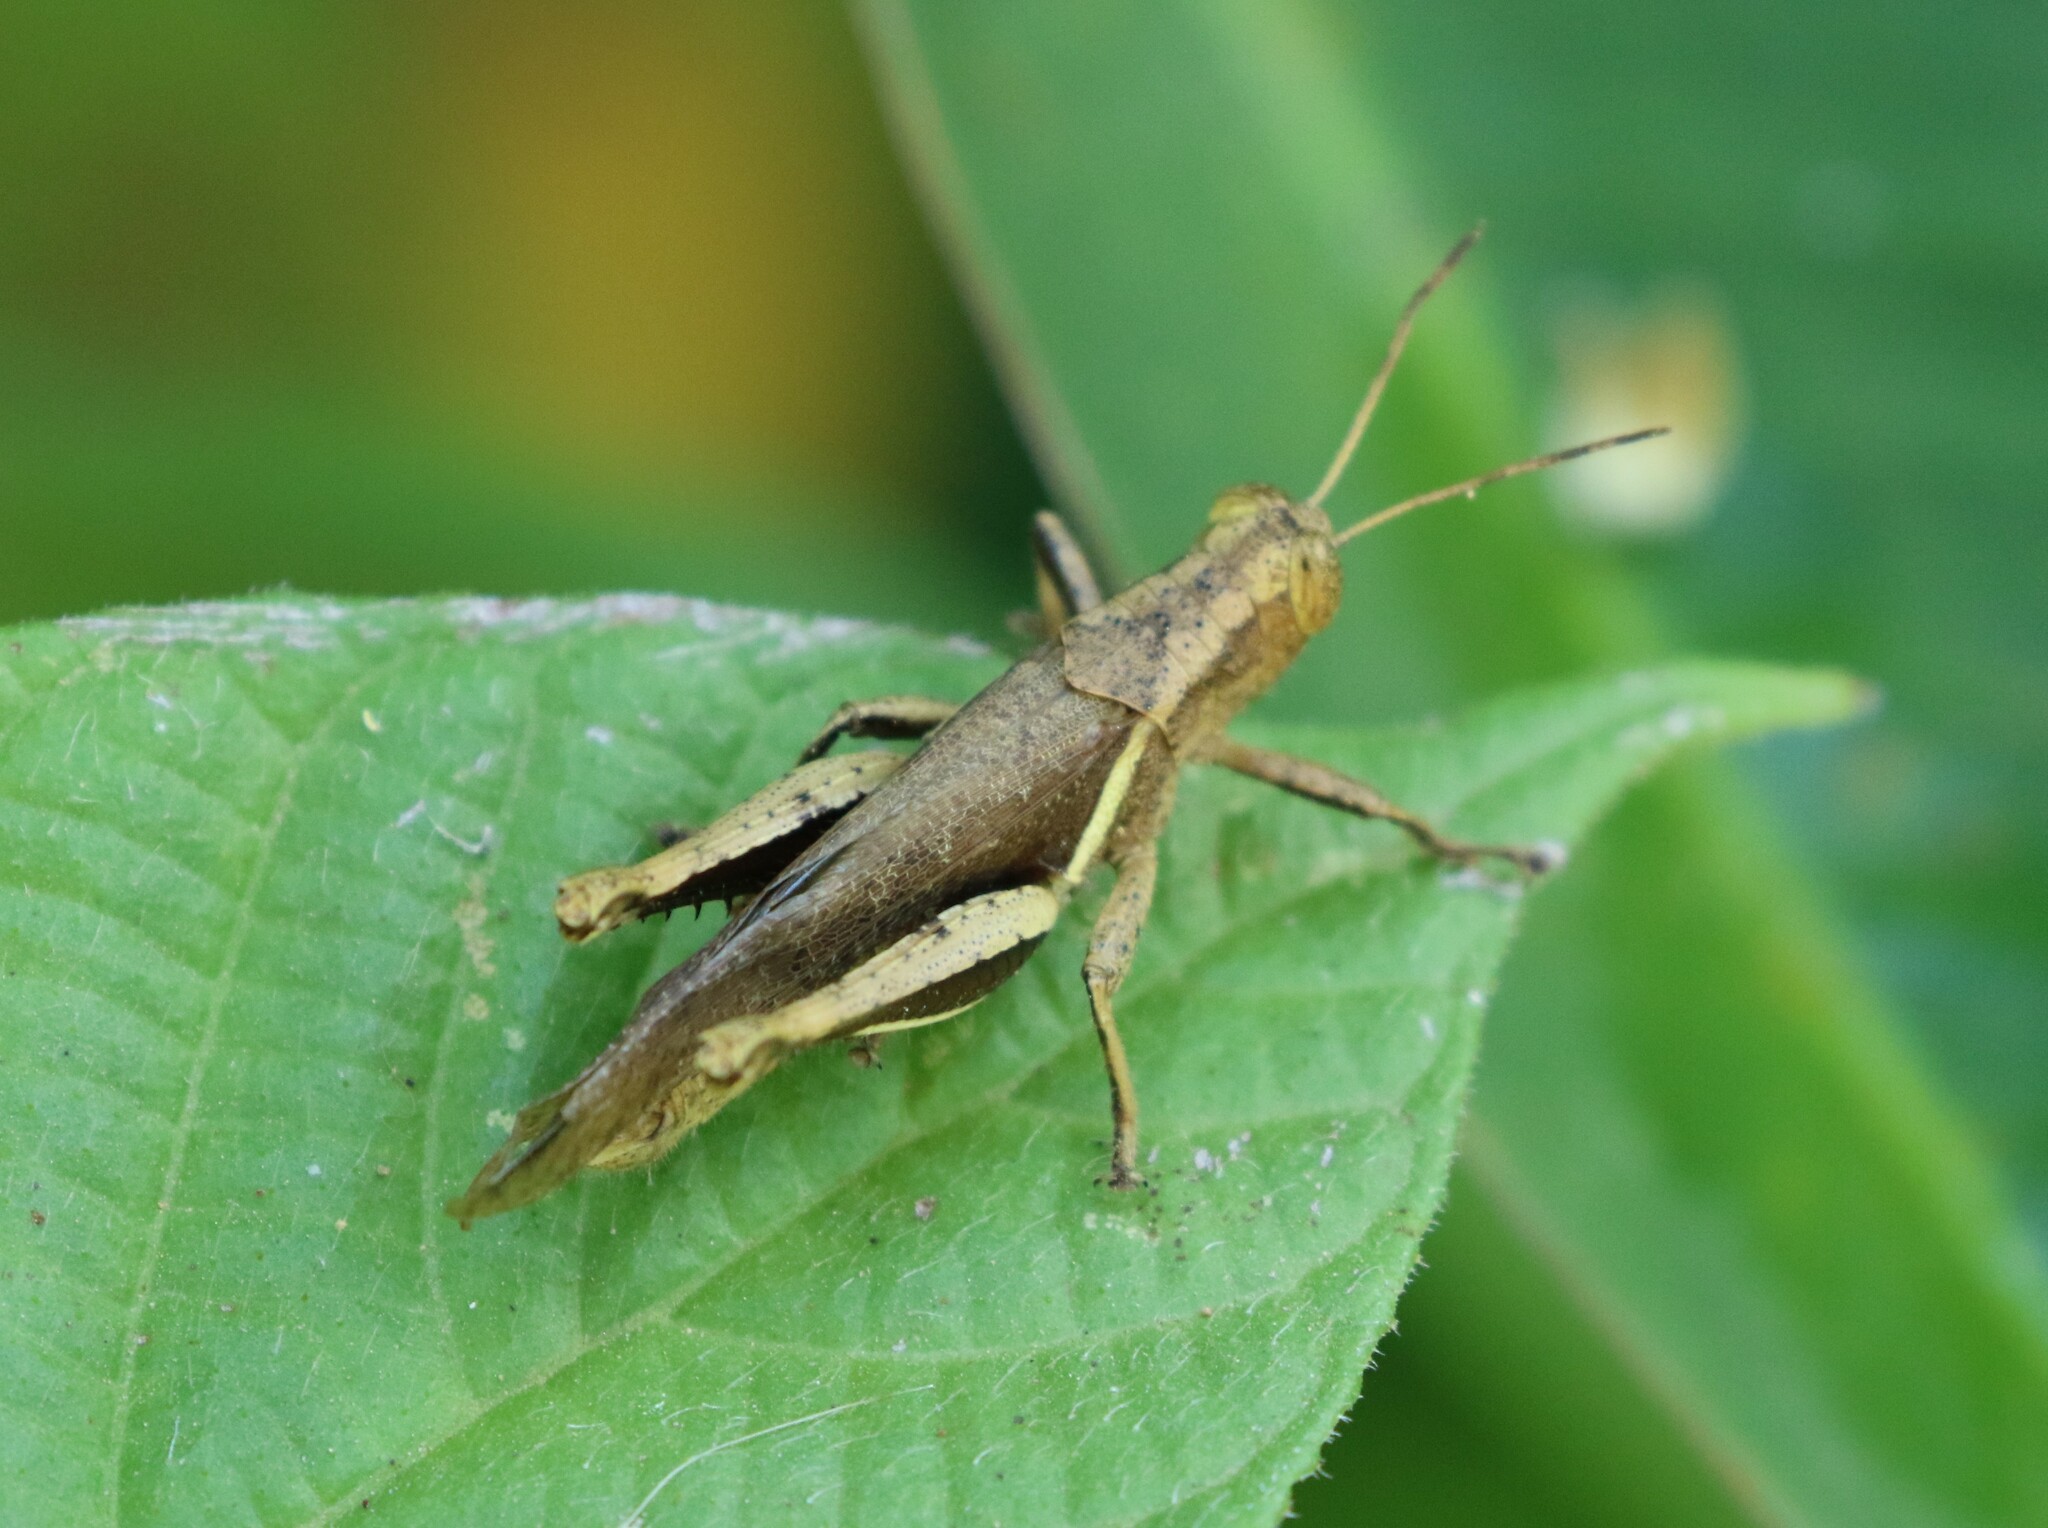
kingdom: Animalia
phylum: Arthropoda
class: Insecta
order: Orthoptera
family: Acrididae
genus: Abracris
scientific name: Abracris flavolineata
